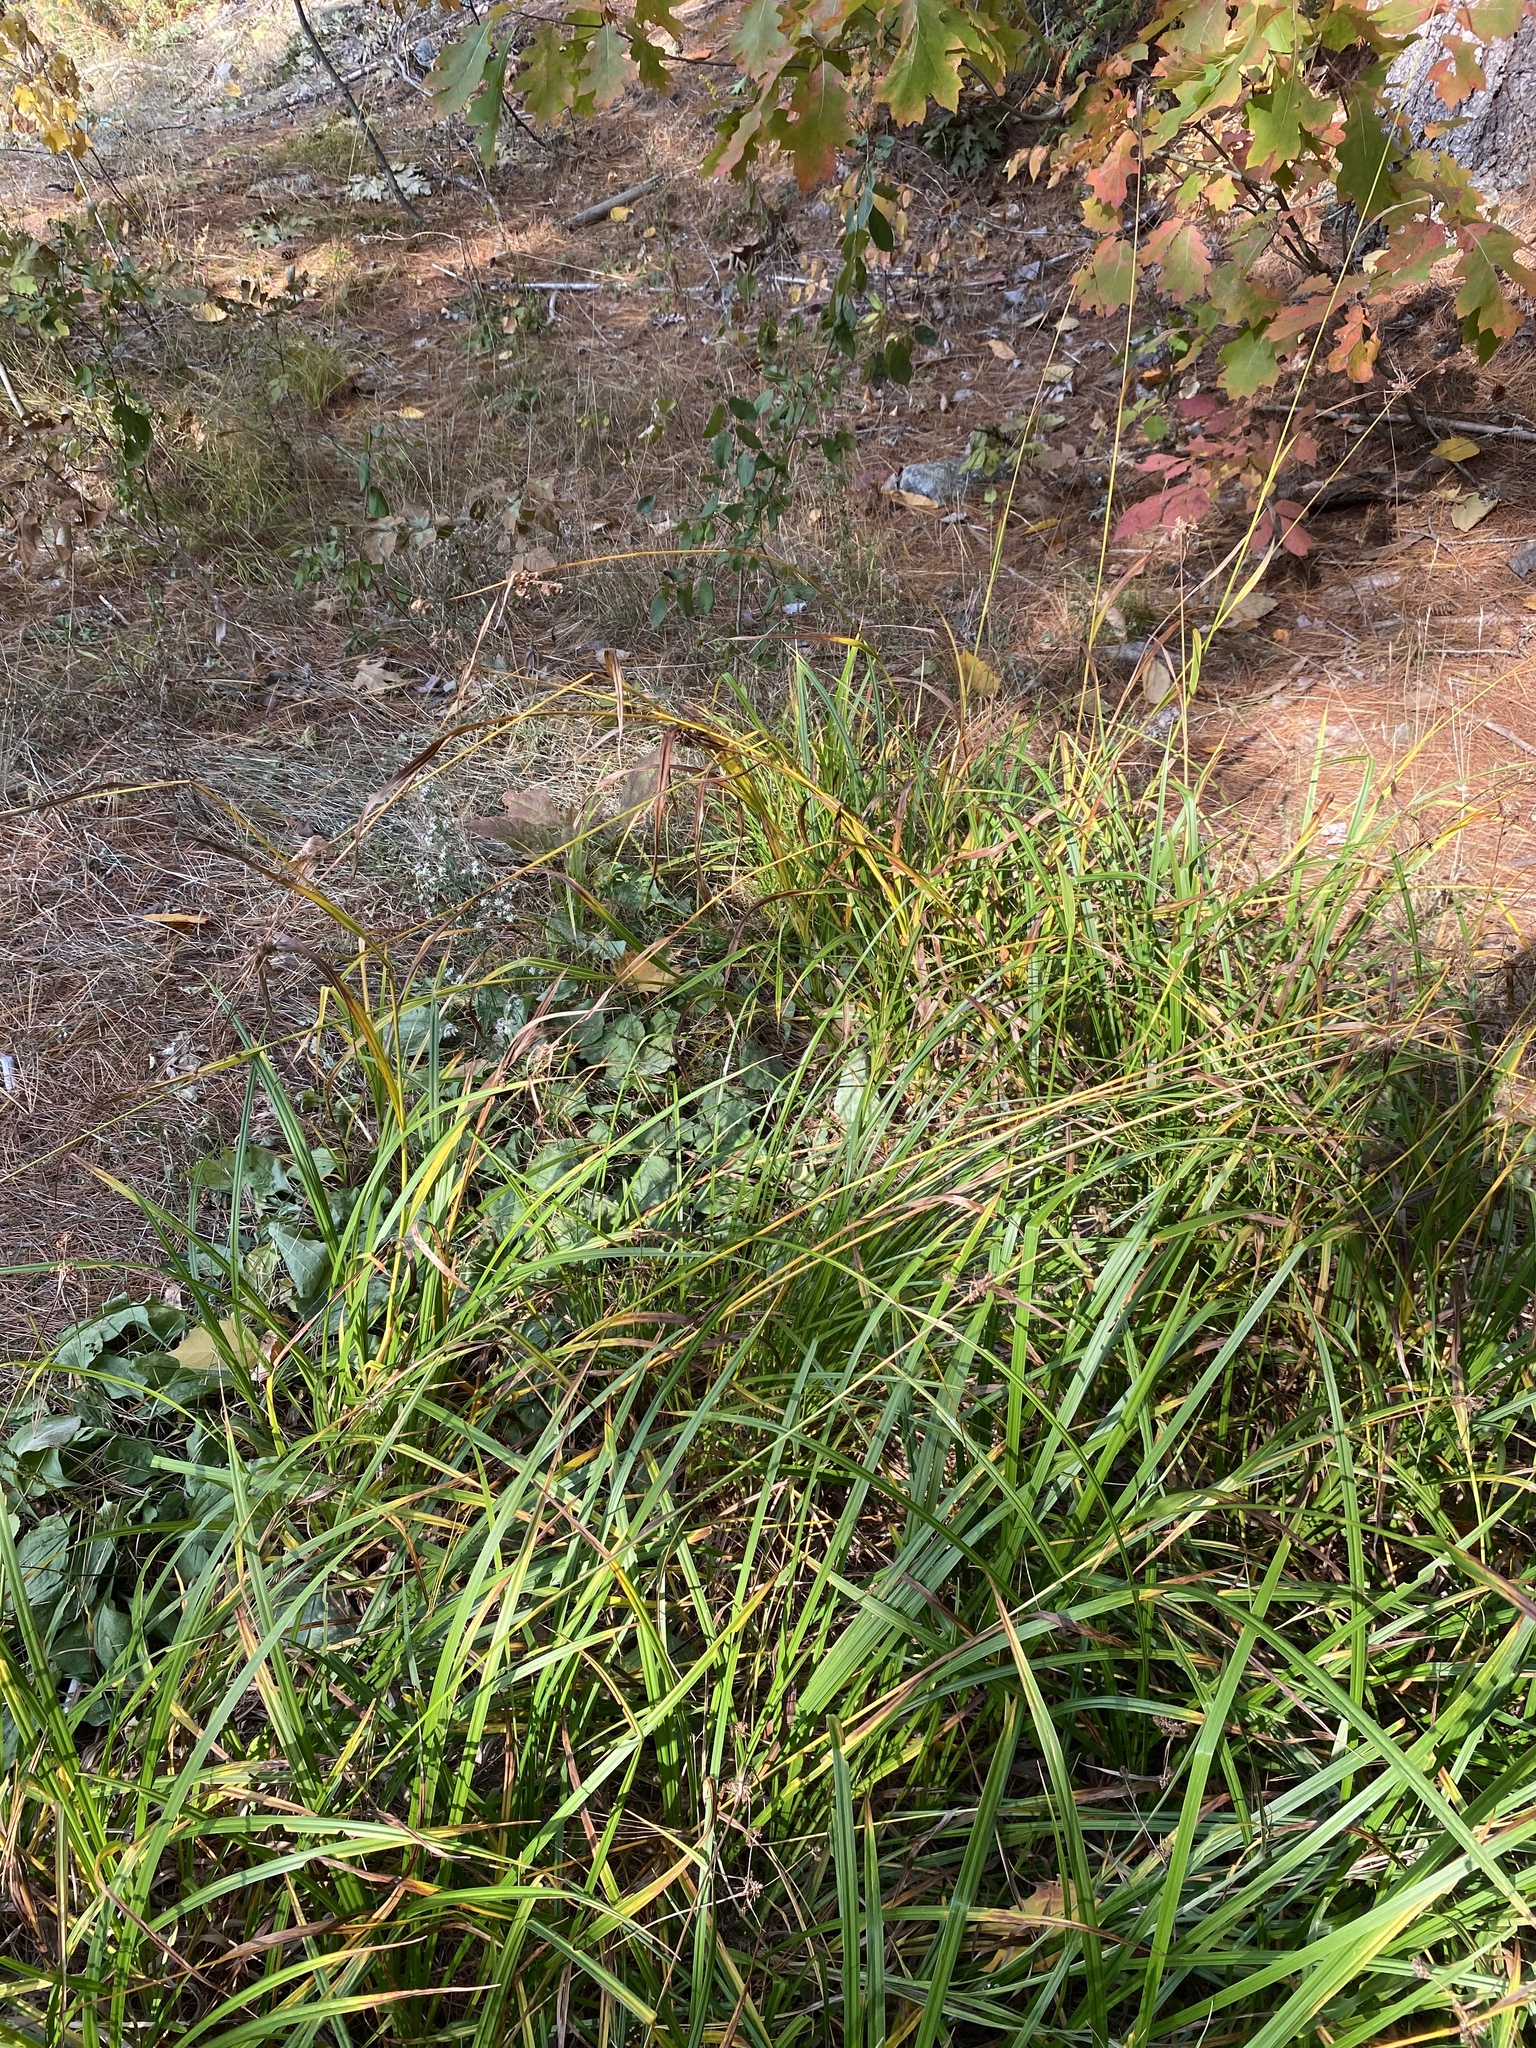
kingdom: Plantae
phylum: Tracheophyta
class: Liliopsida
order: Poales
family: Cyperaceae
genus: Scirpus
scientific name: Scirpus
